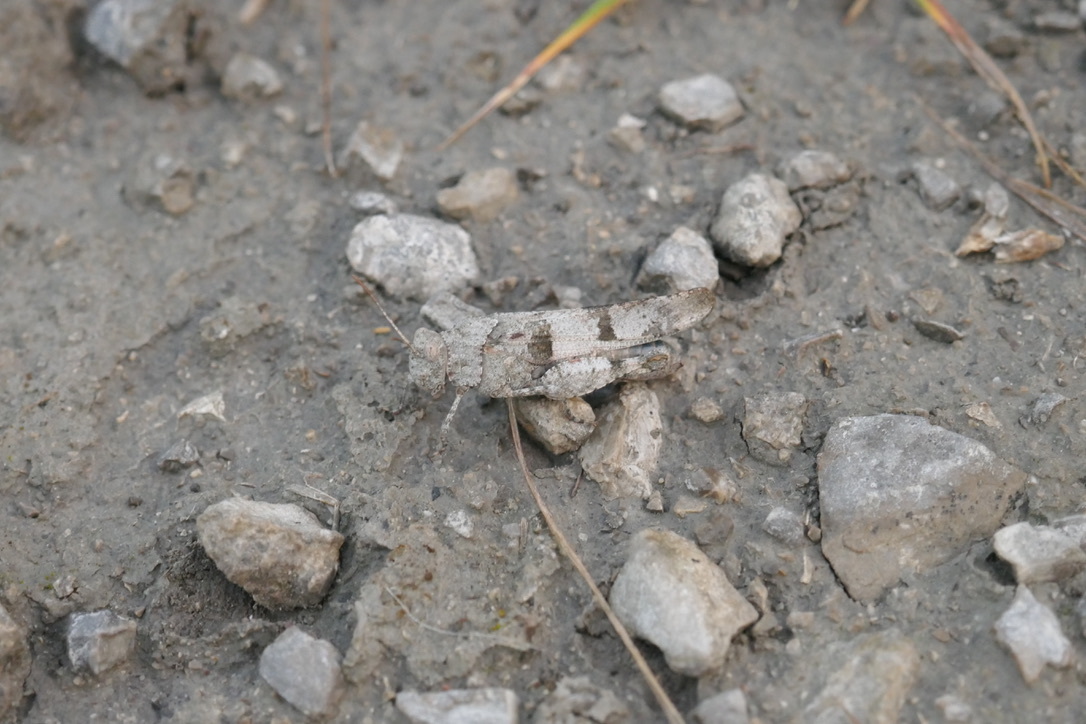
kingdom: Animalia
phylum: Arthropoda
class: Insecta
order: Orthoptera
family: Acrididae
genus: Oedipoda
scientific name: Oedipoda caerulescens
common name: Blue-winged grasshopper
